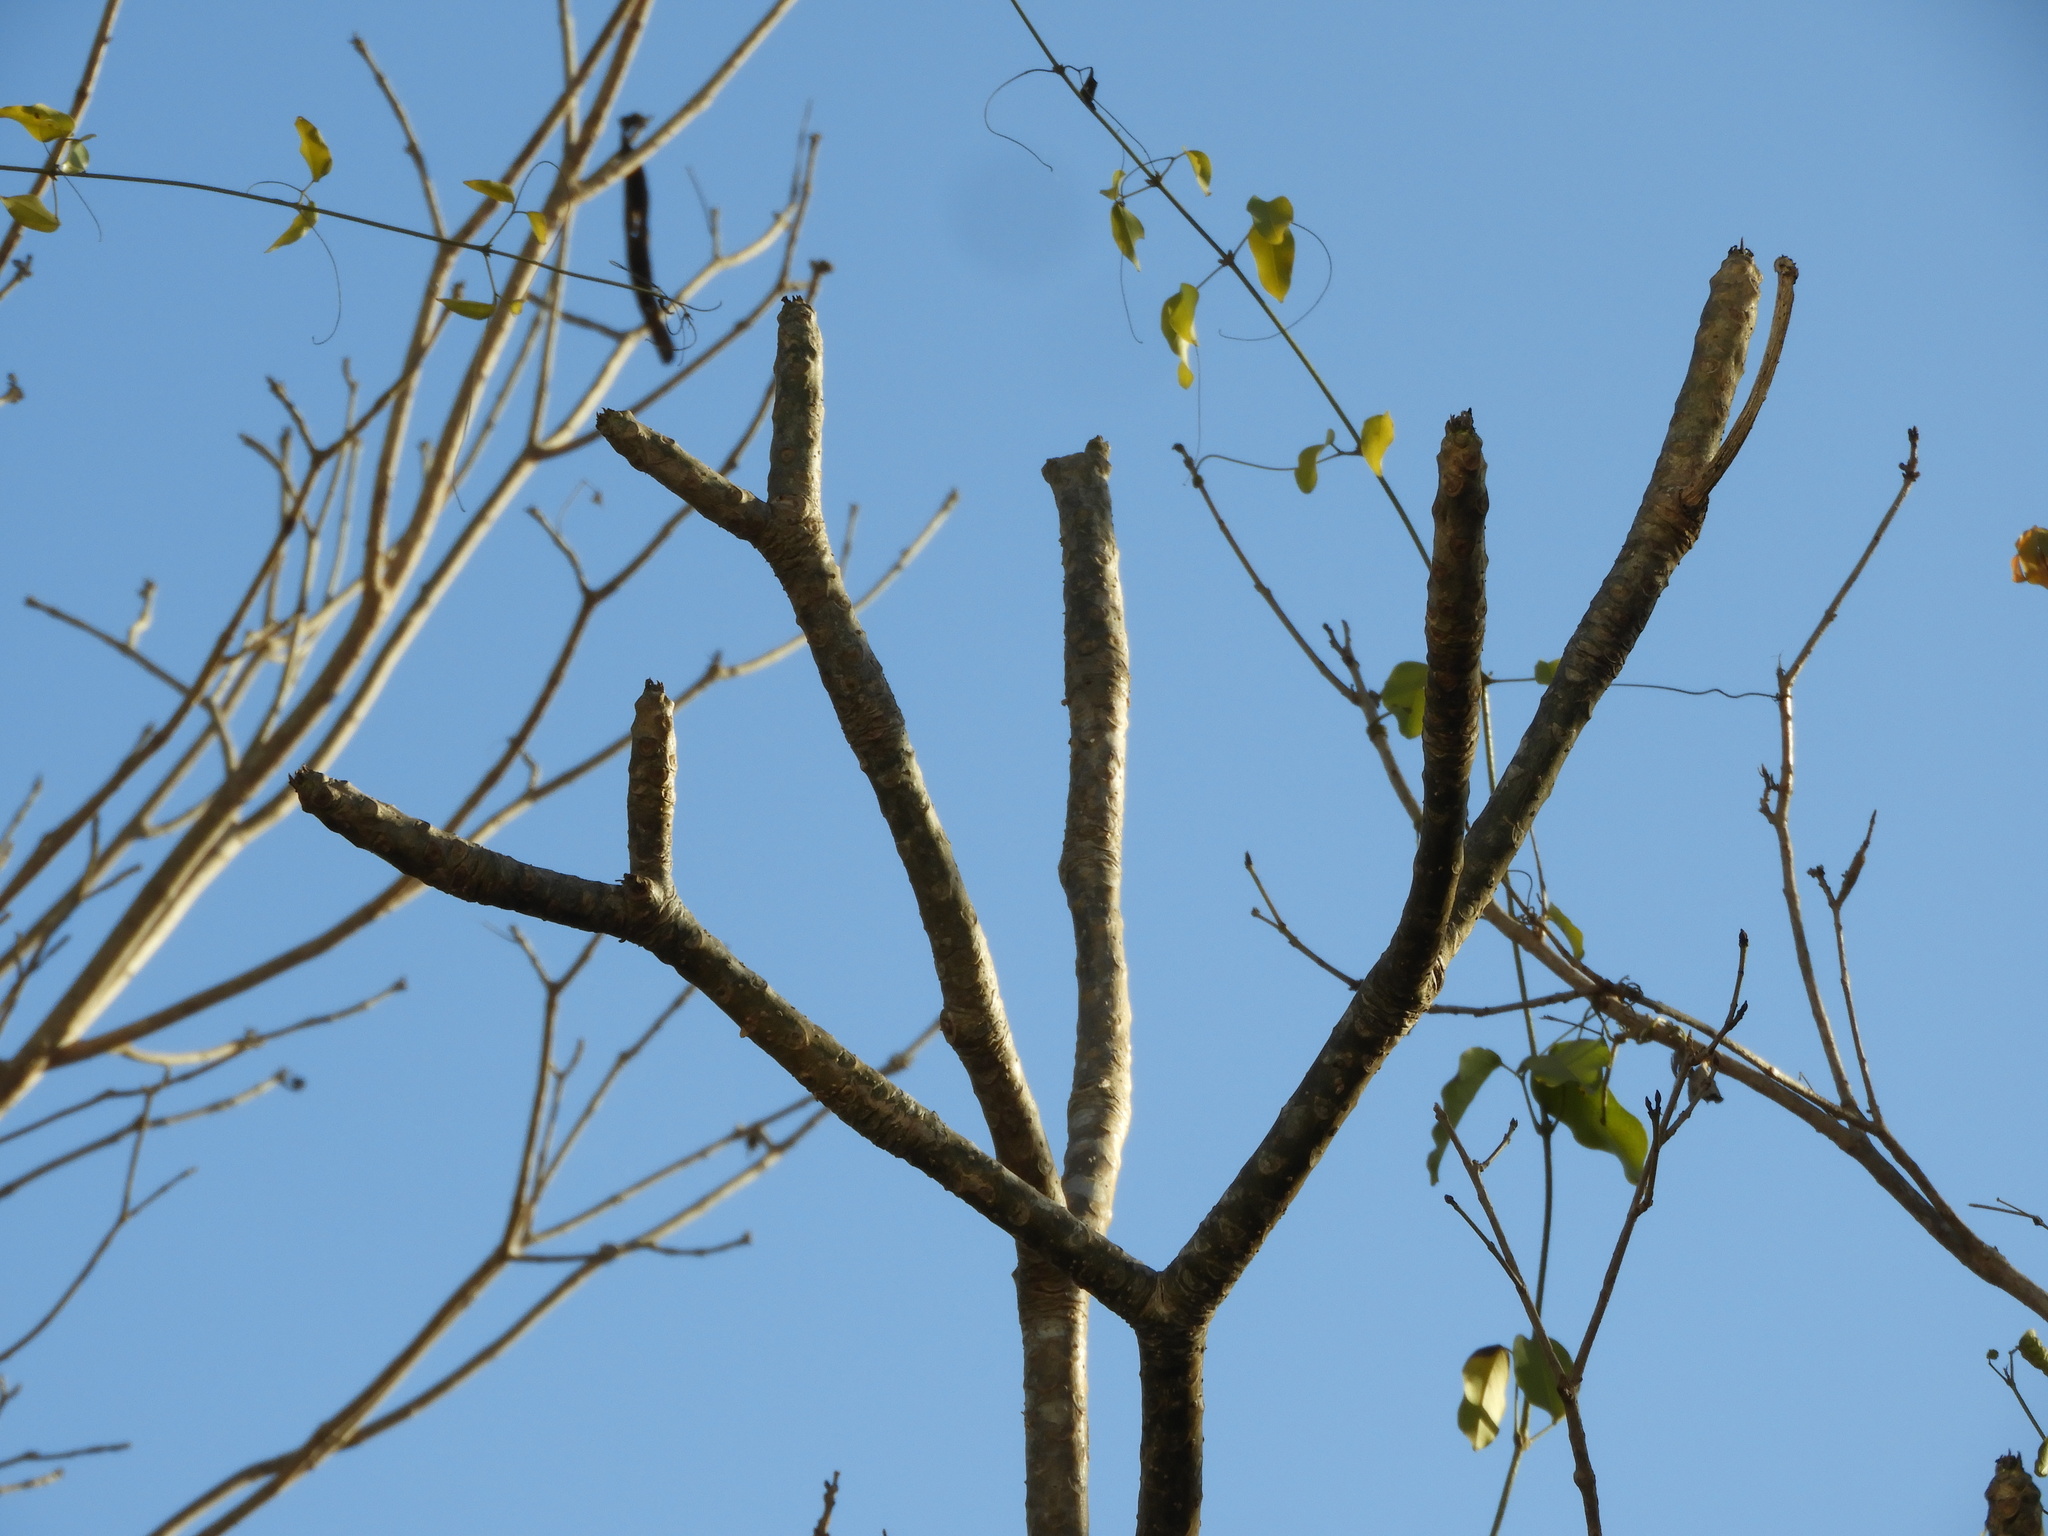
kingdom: Plantae
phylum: Tracheophyta
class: Magnoliopsida
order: Gentianales
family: Apocynaceae
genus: Plumeria
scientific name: Plumeria rubra
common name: Pagoda-tree
